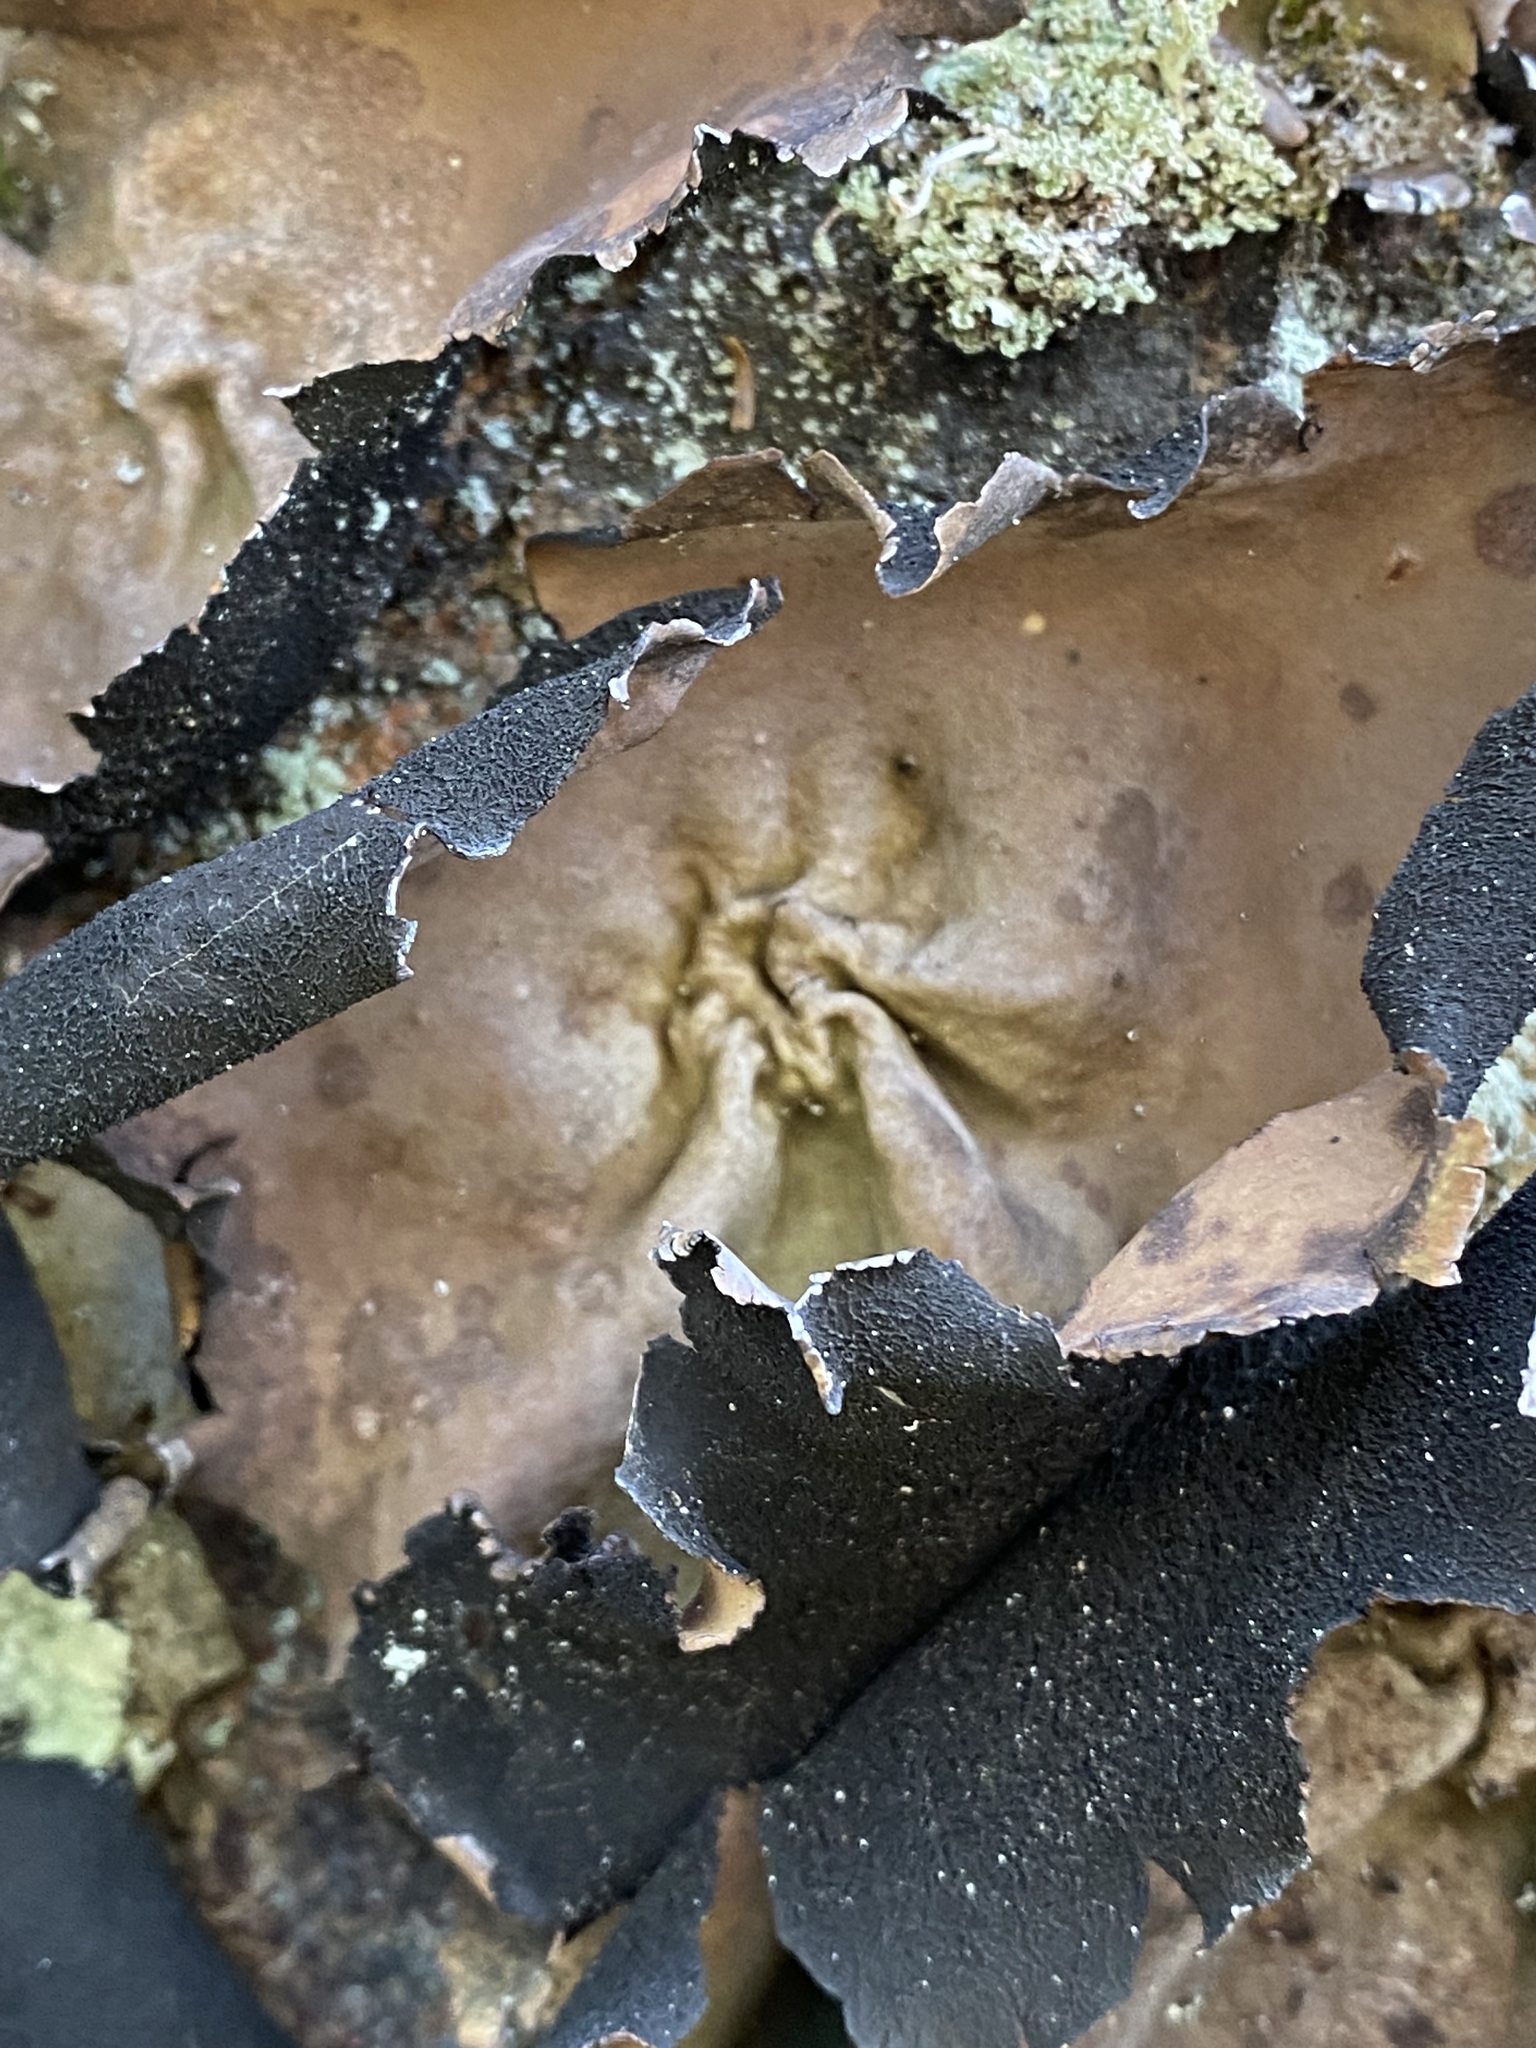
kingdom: Fungi
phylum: Ascomycota
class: Lecanoromycetes
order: Umbilicariales
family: Umbilicariaceae
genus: Umbilicaria
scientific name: Umbilicaria mammulata
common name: Smooth rock tripe
